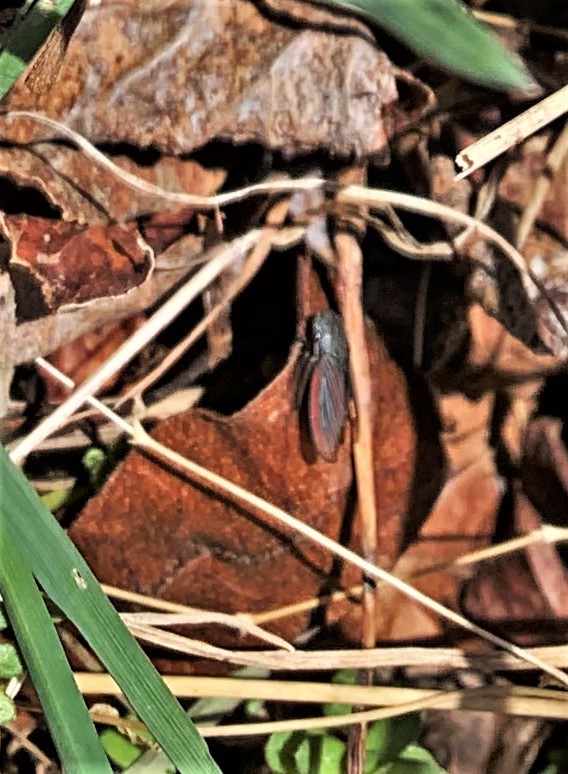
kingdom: Animalia
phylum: Arthropoda
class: Insecta
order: Hemiptera
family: Cicadellidae
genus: Cuerna
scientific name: Cuerna striata
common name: Striped leafhopper
